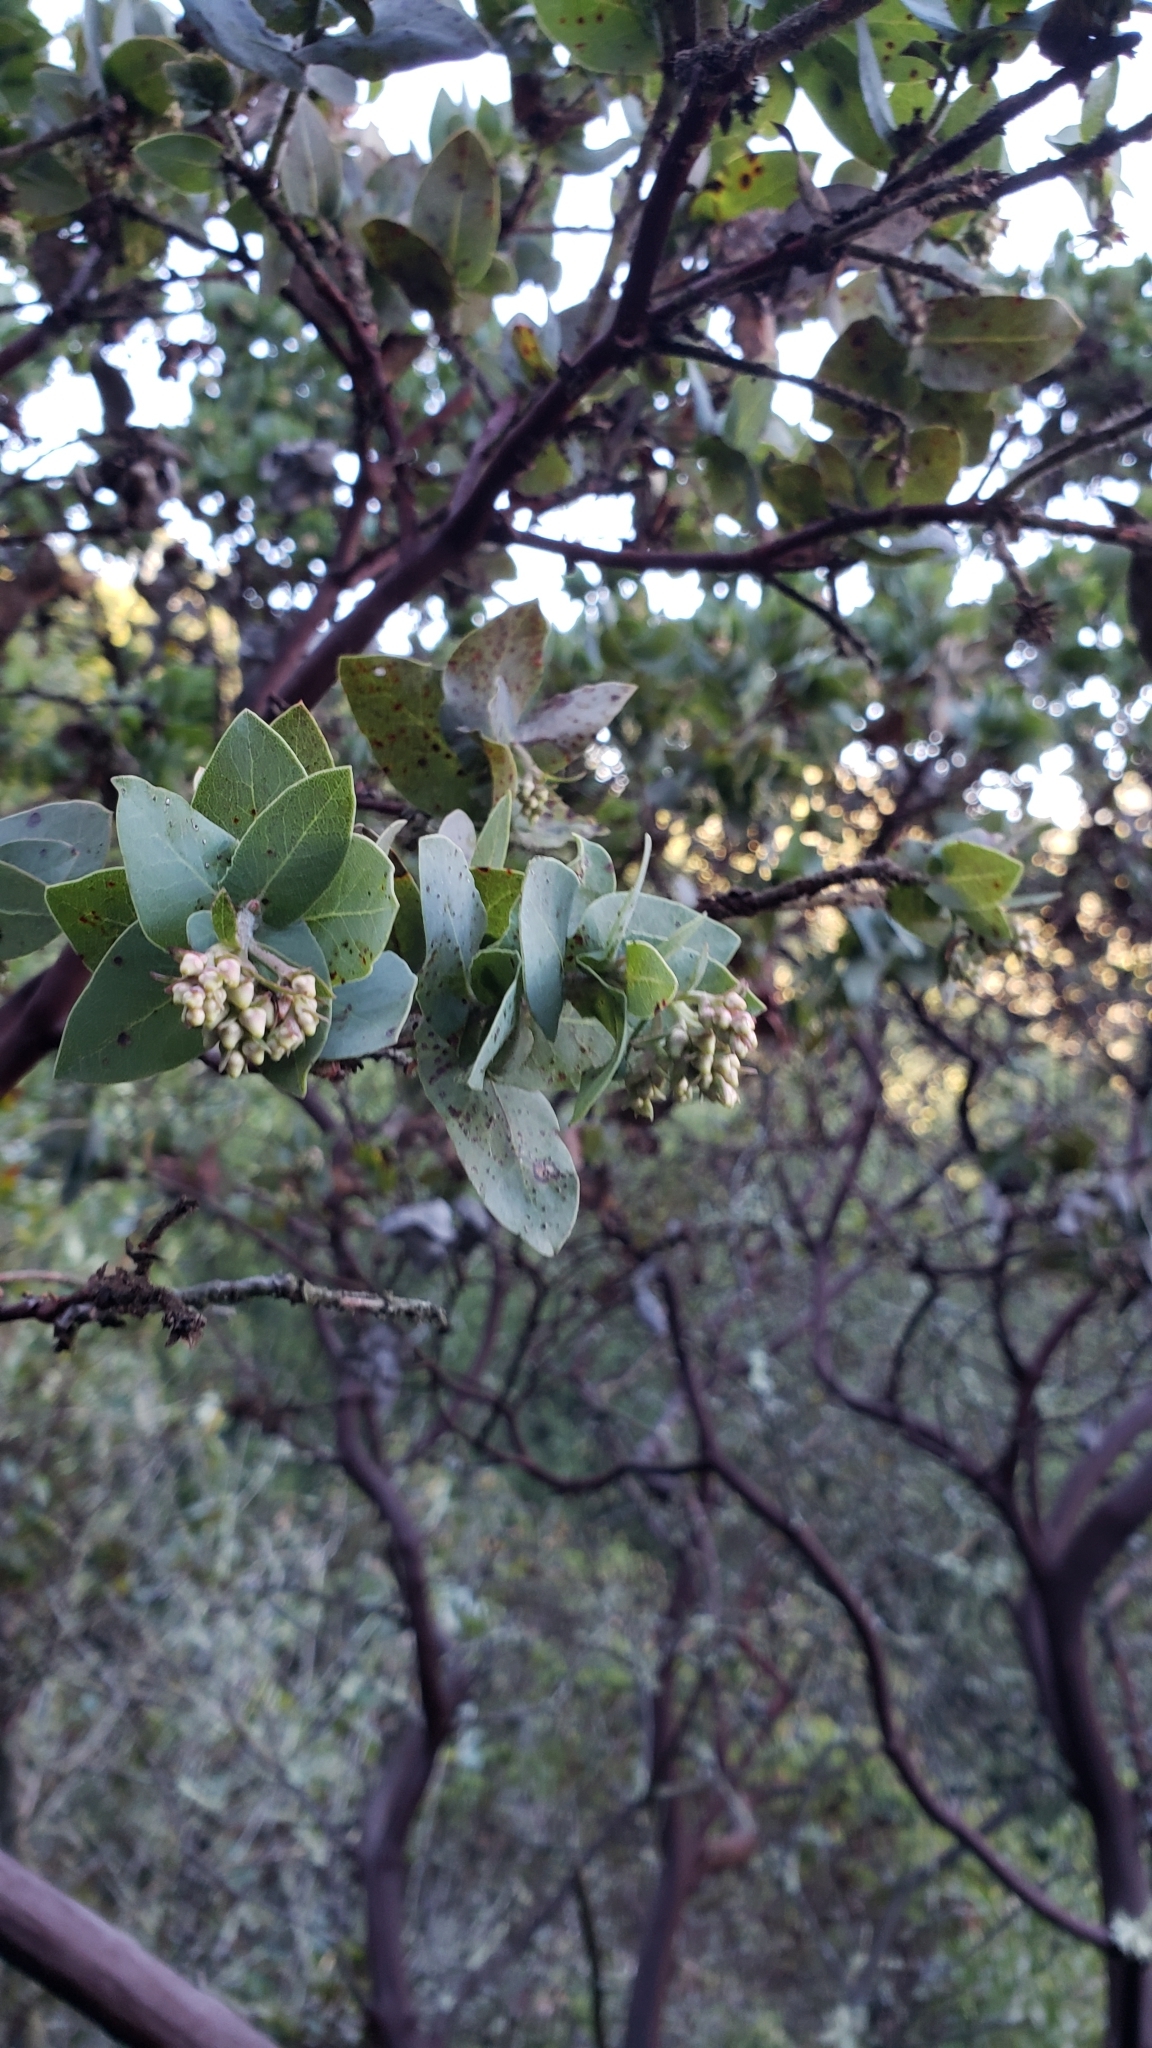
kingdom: Plantae
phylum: Tracheophyta
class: Magnoliopsida
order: Ericales
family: Ericaceae
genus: Arctostaphylos
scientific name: Arctostaphylos pallida
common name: Pallid manzanita
